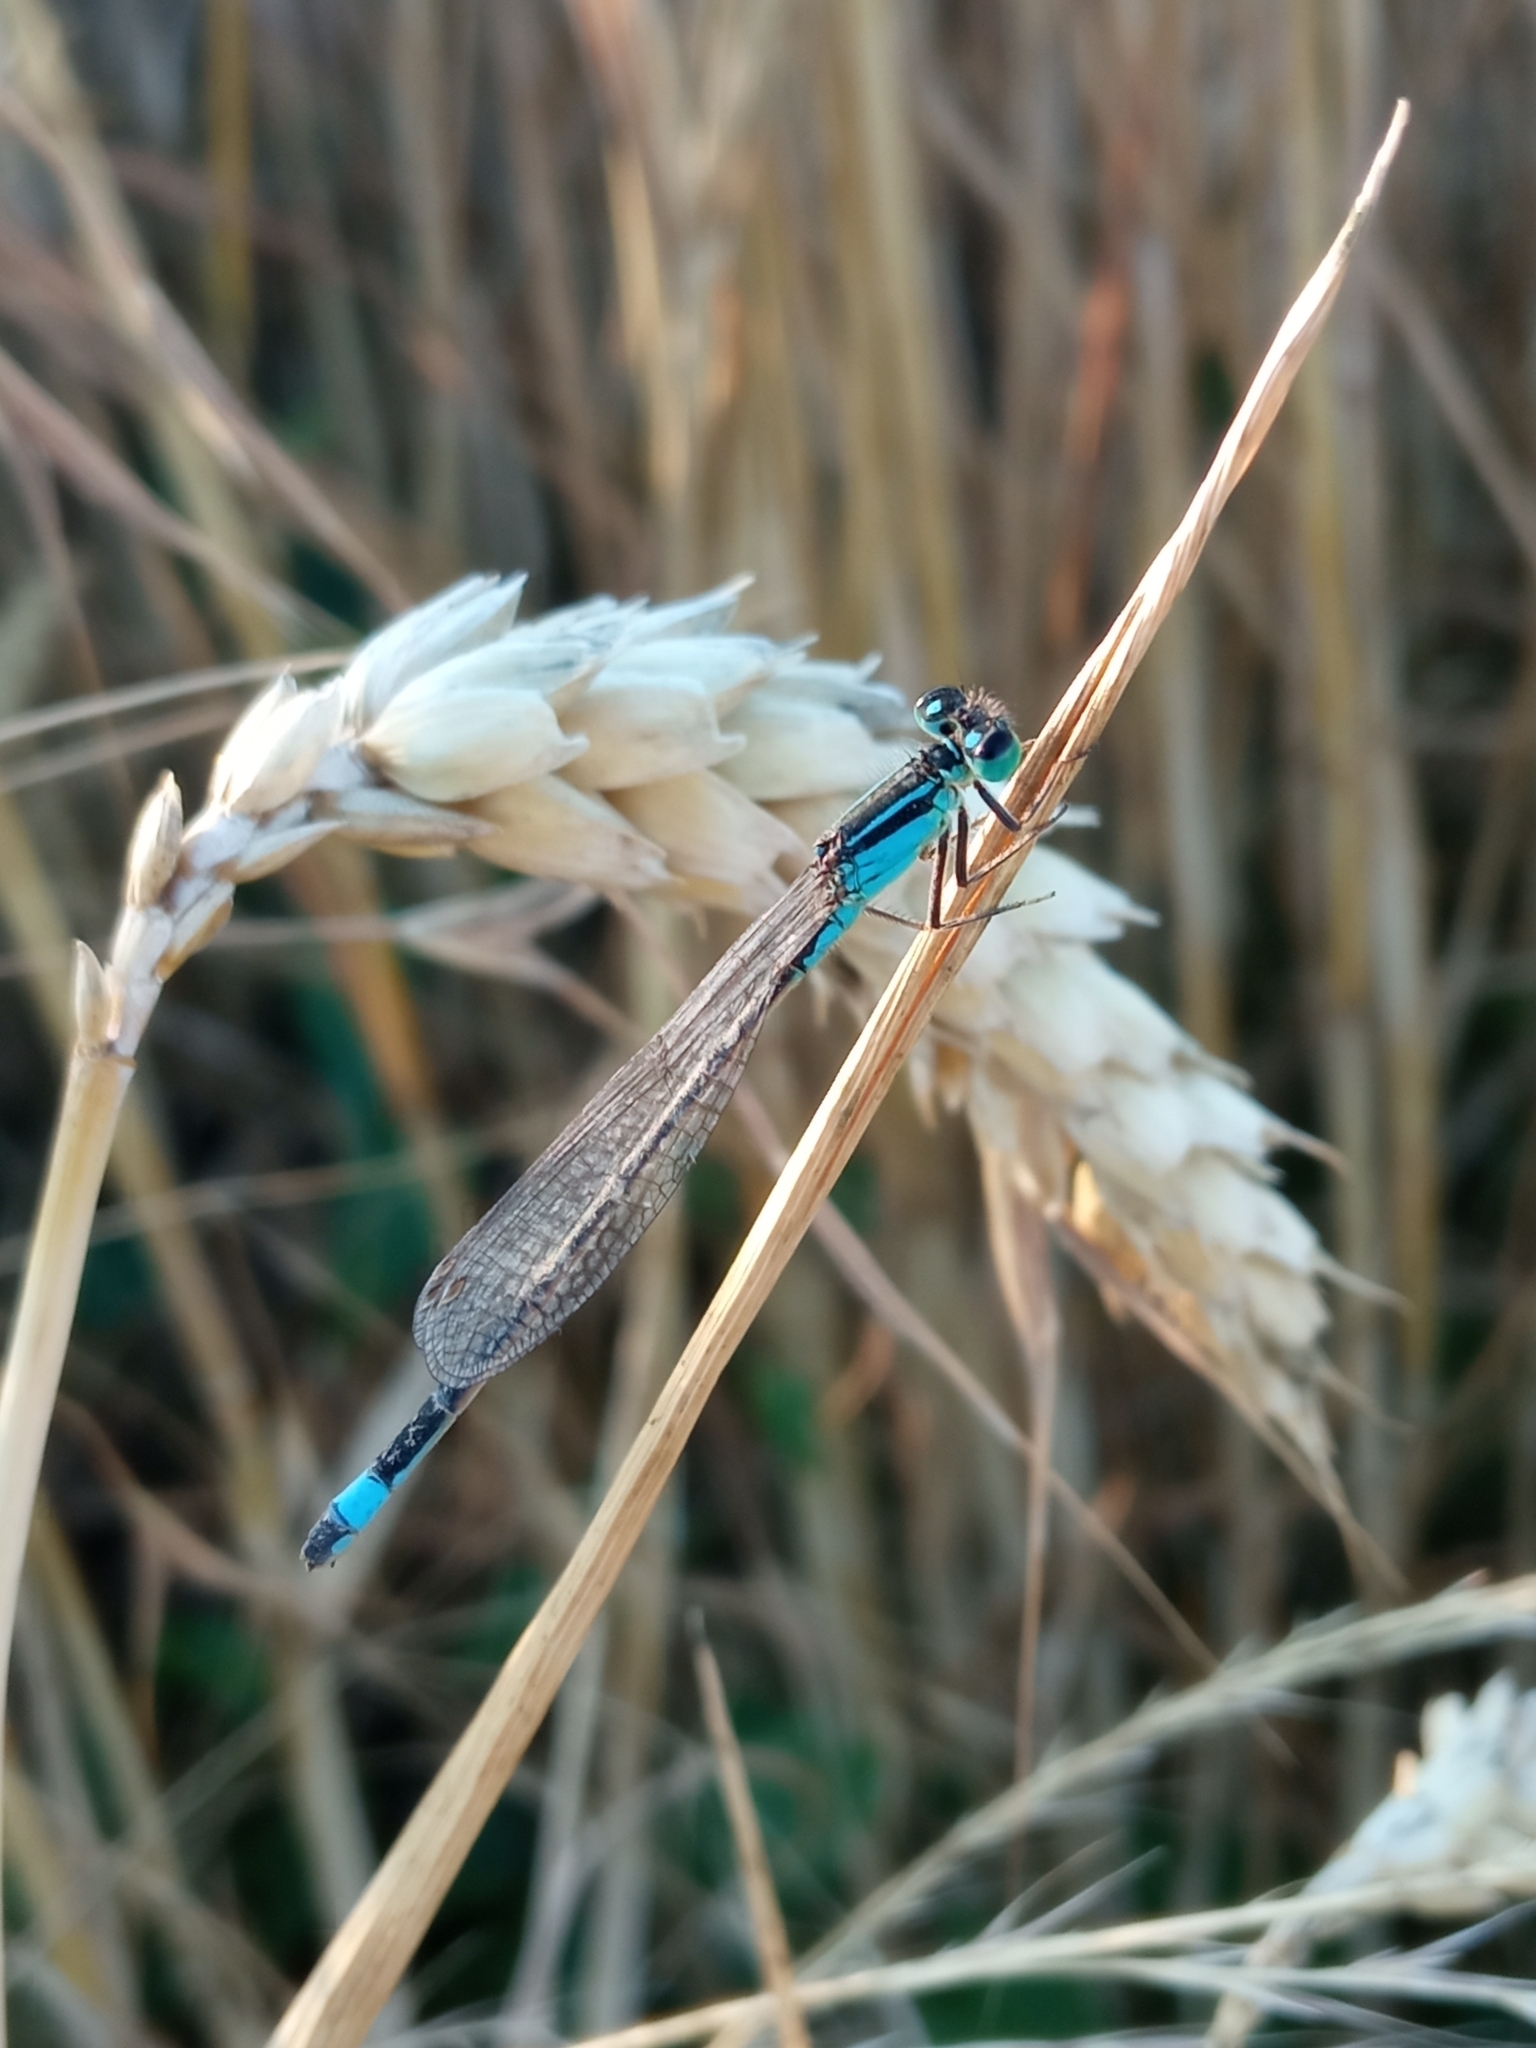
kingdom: Animalia
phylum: Arthropoda
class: Insecta
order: Odonata
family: Coenagrionidae
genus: Ischnura
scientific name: Ischnura elegans
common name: Blue-tailed damselfly
